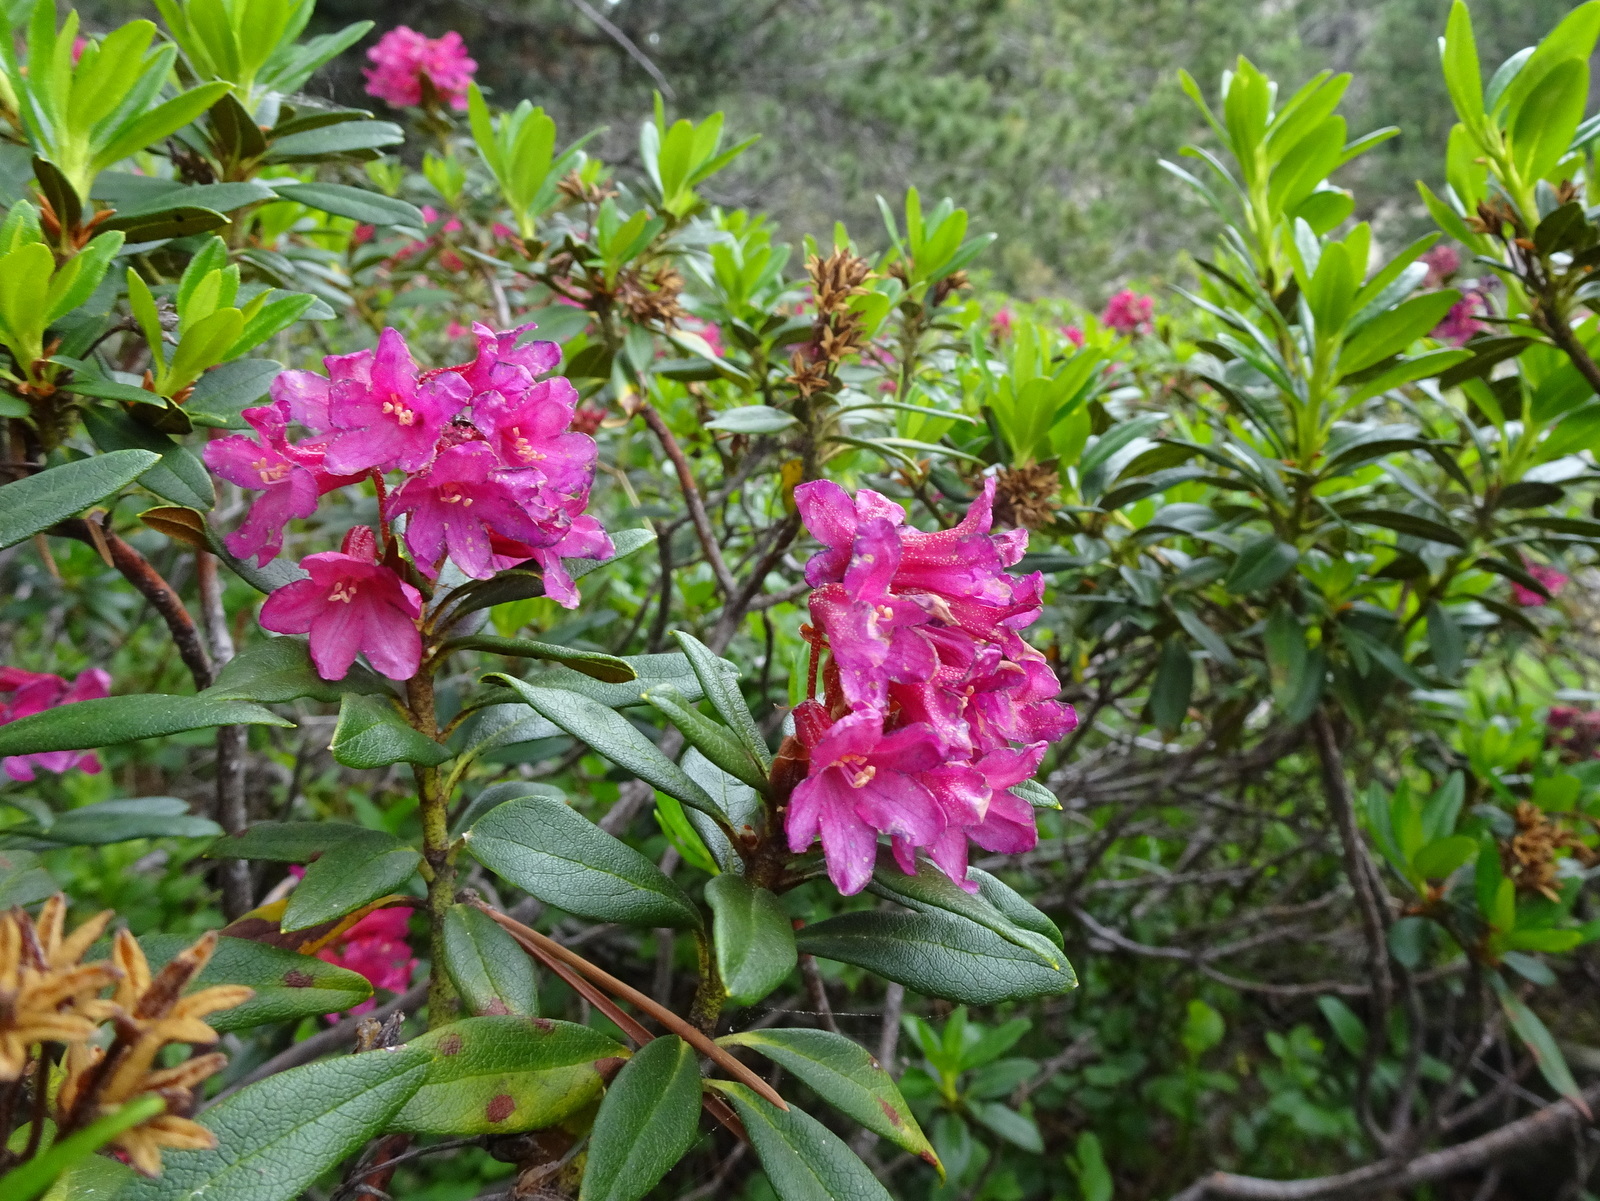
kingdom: Plantae
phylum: Tracheophyta
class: Magnoliopsida
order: Ericales
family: Ericaceae
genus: Rhododendron
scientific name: Rhododendron ferrugineum
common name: Alpenrose
